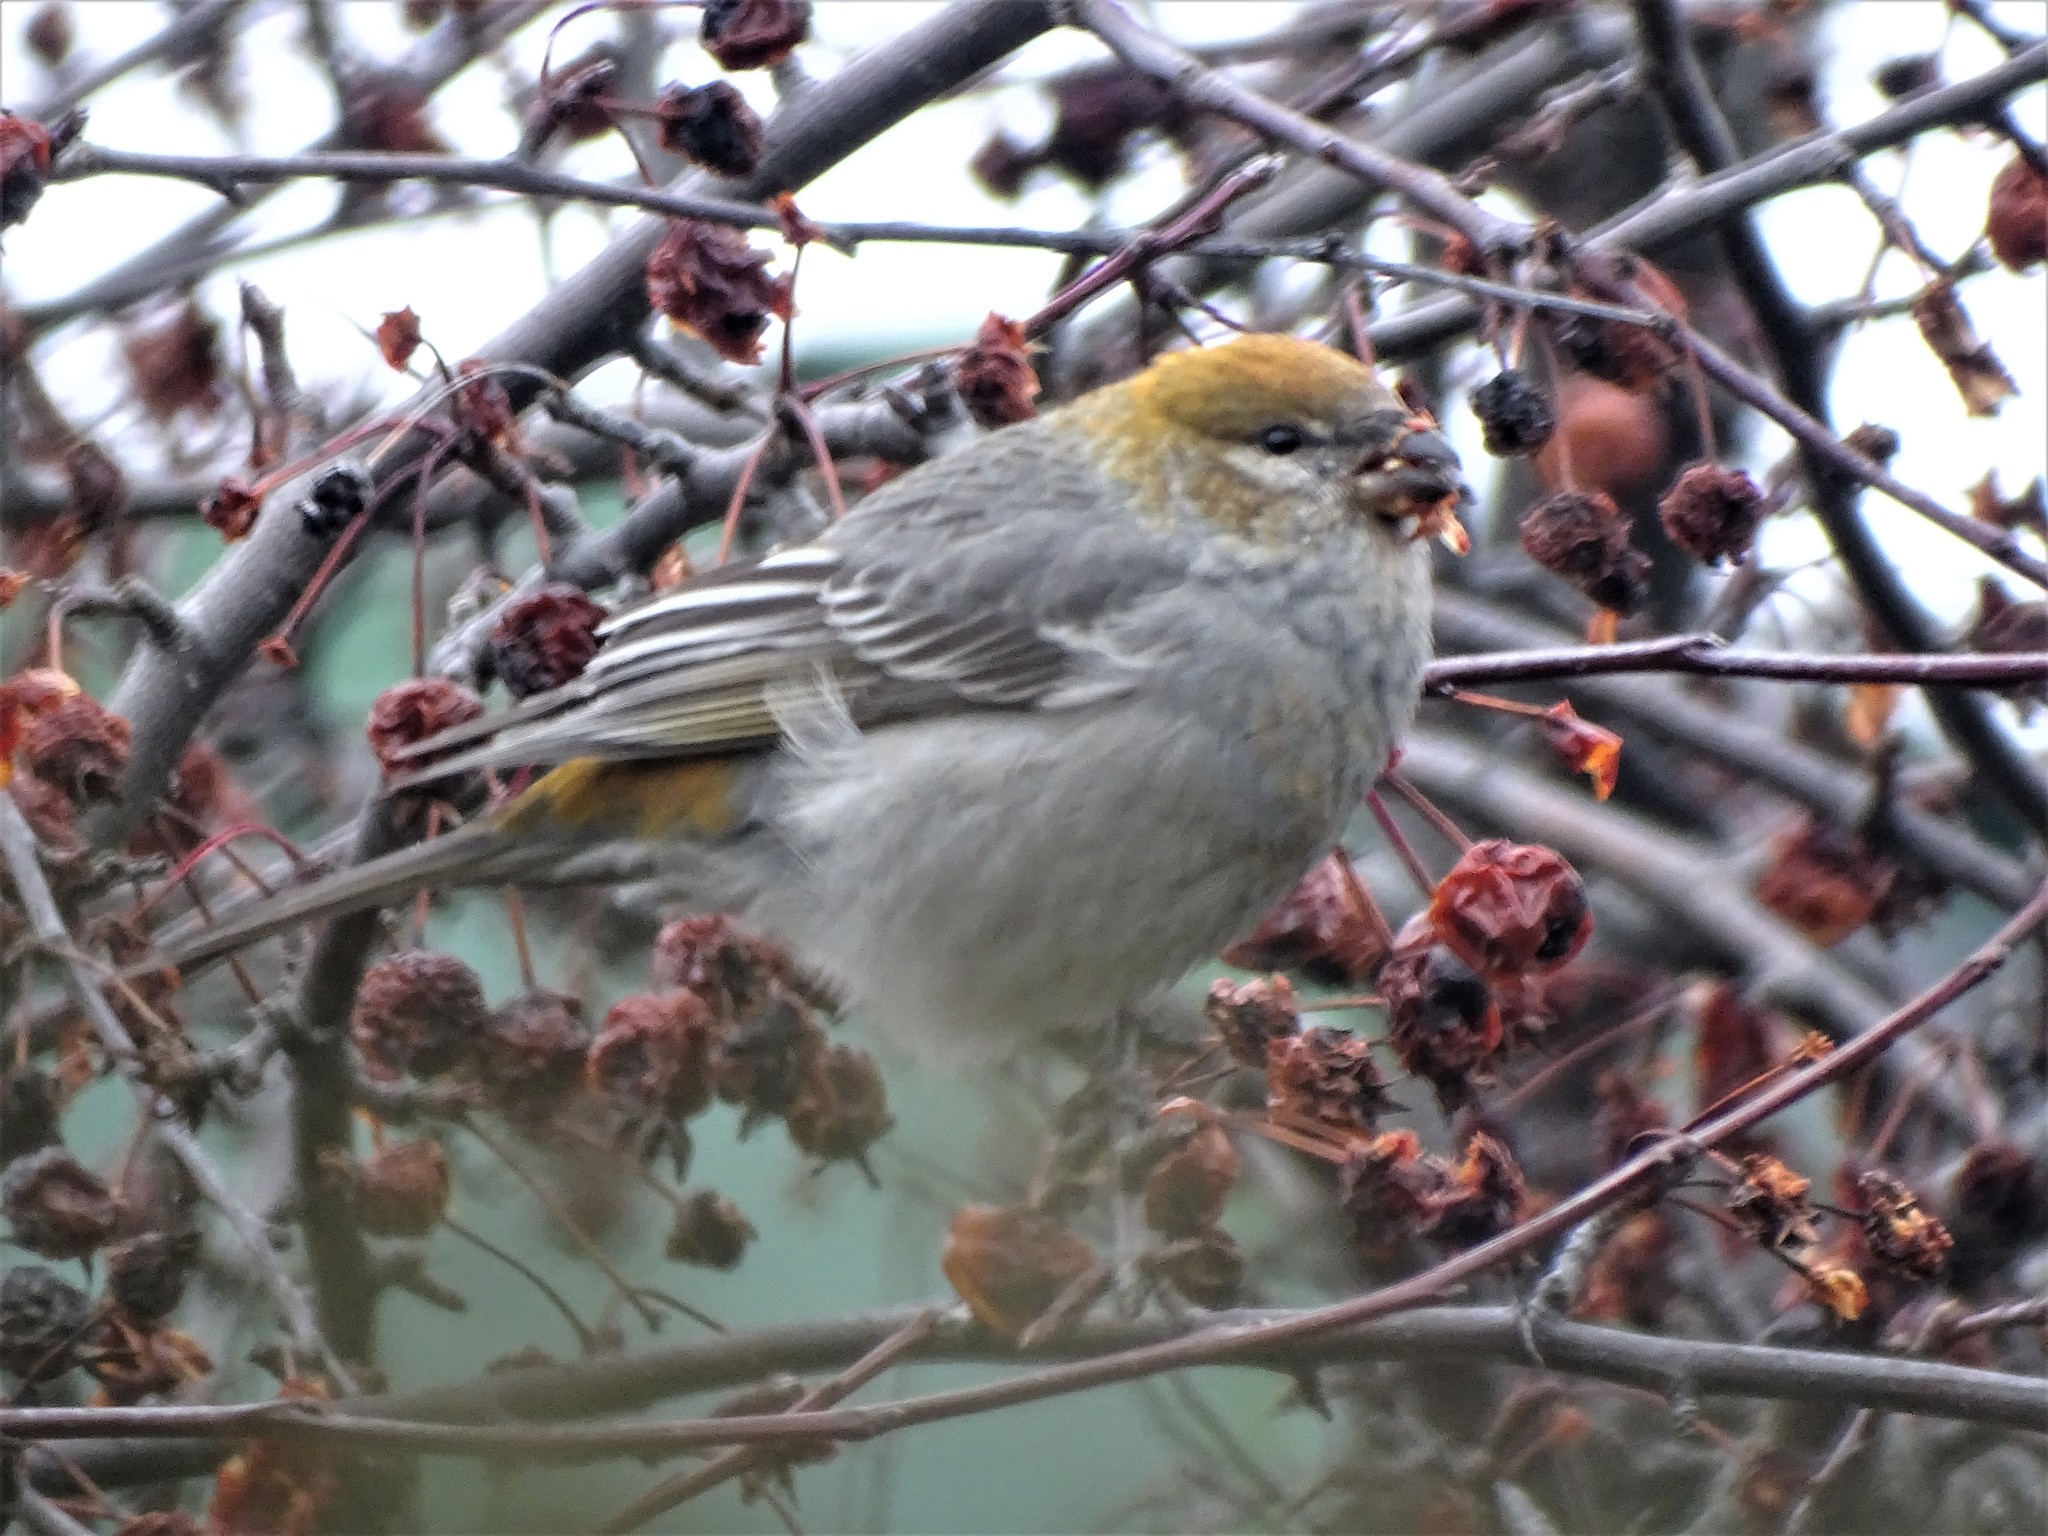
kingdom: Animalia
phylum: Chordata
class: Aves
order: Passeriformes
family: Fringillidae
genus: Pinicola
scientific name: Pinicola enucleator
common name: Pine grosbeak
